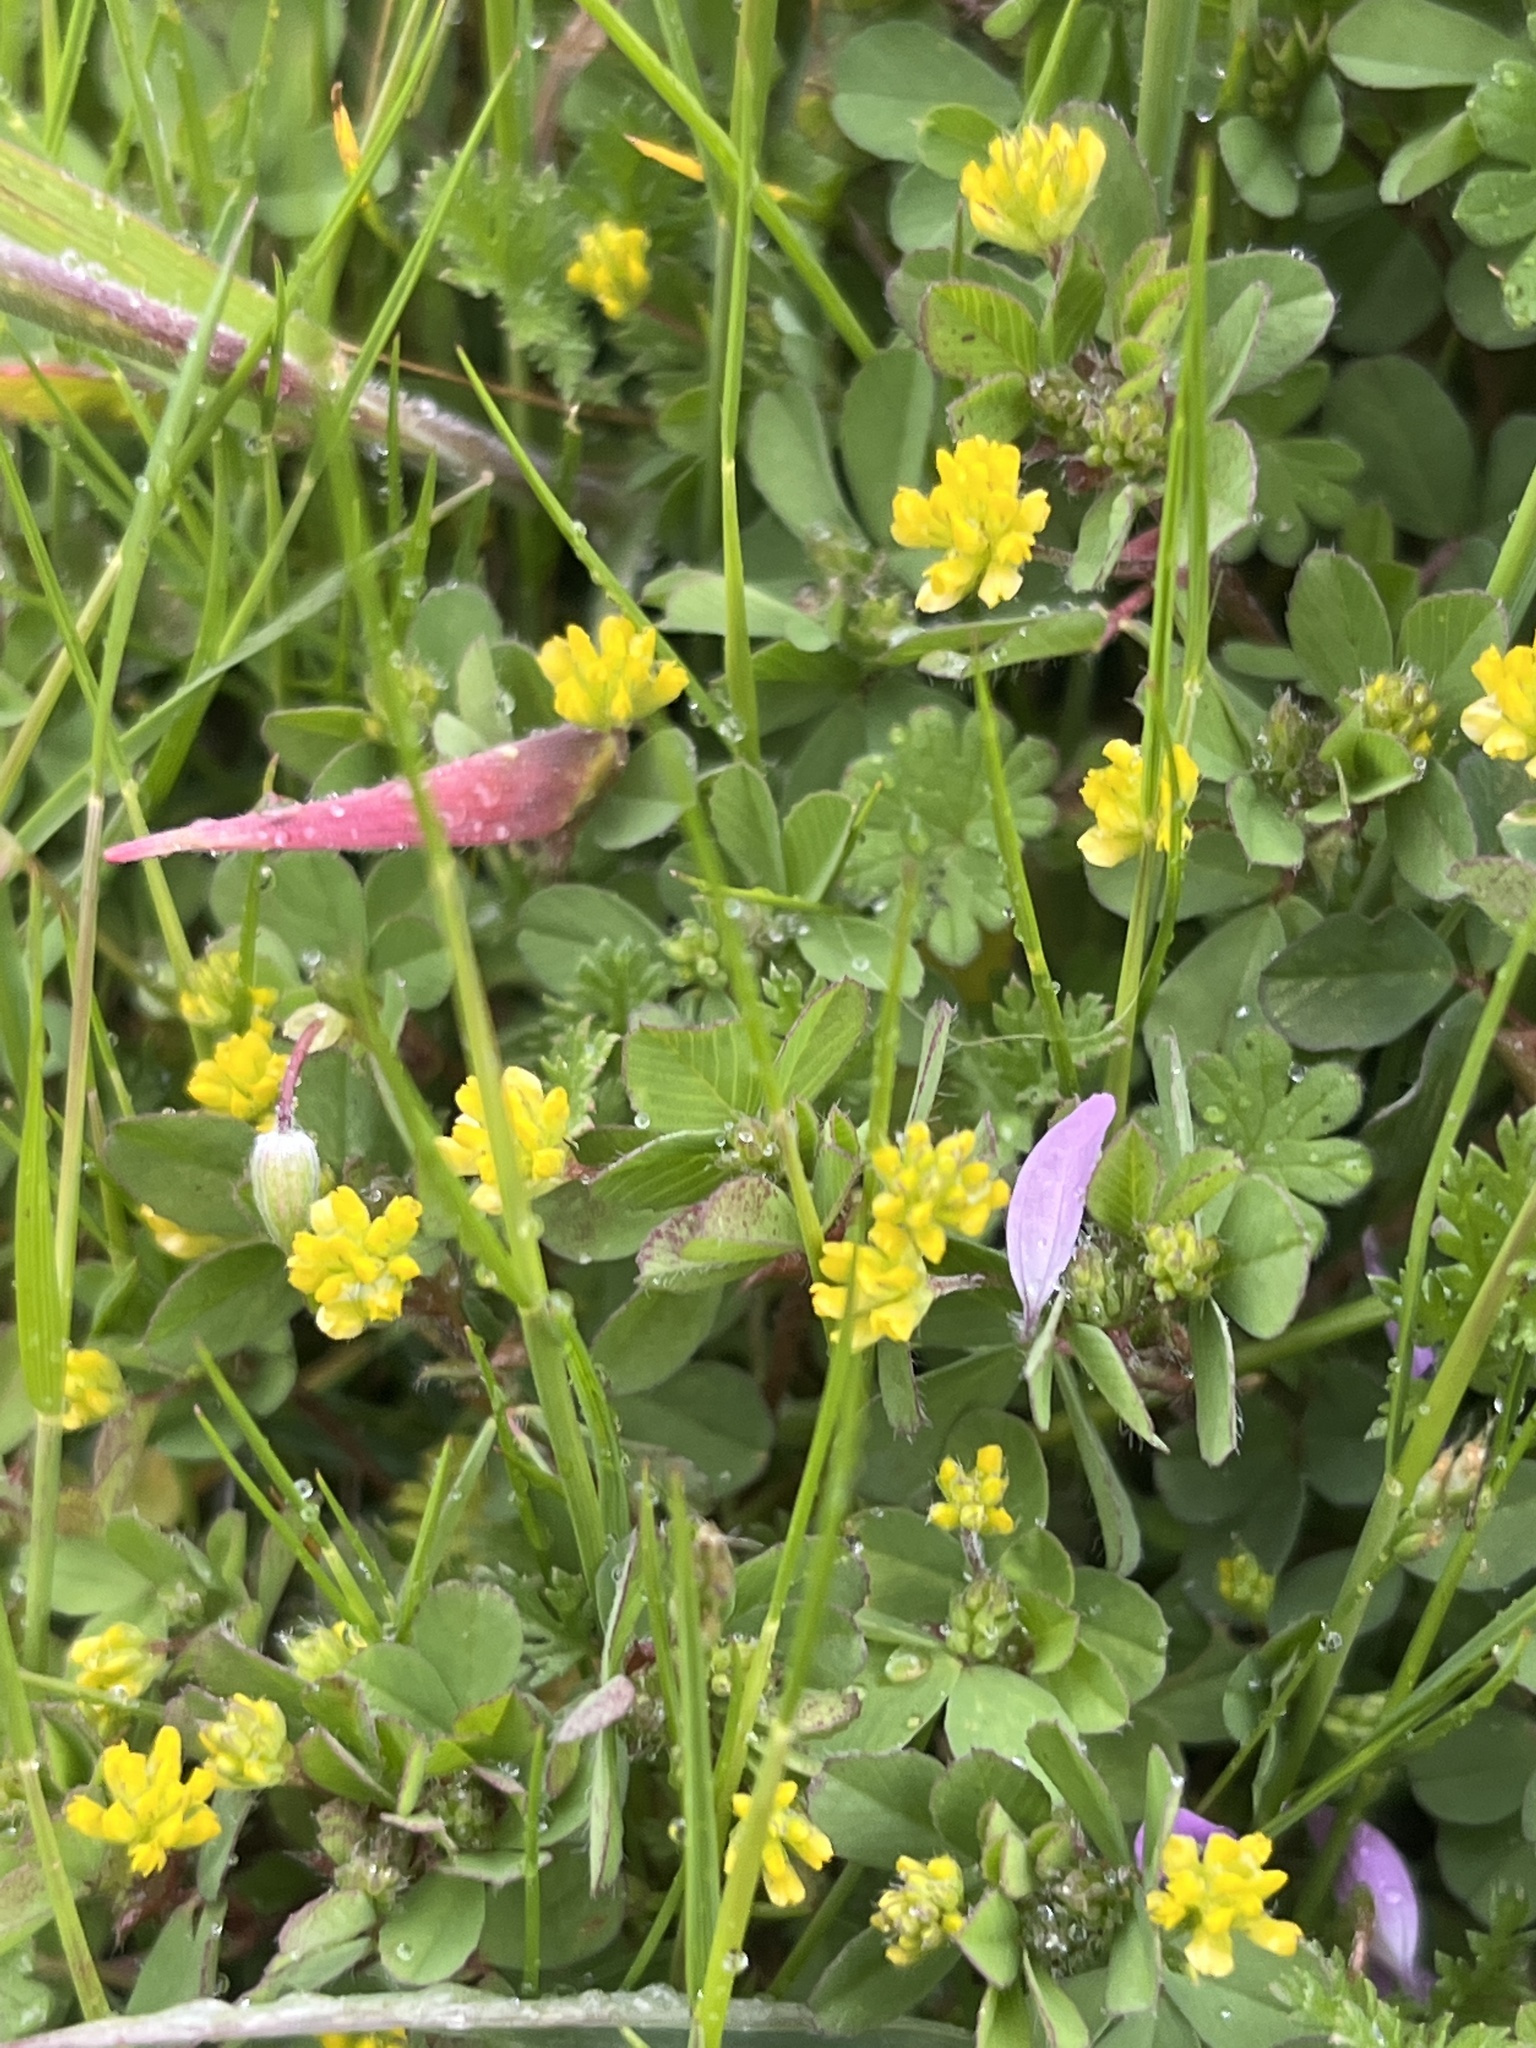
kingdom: Plantae
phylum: Tracheophyta
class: Magnoliopsida
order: Fabales
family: Fabaceae
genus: Trifolium
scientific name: Trifolium dubium
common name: Suckling clover
